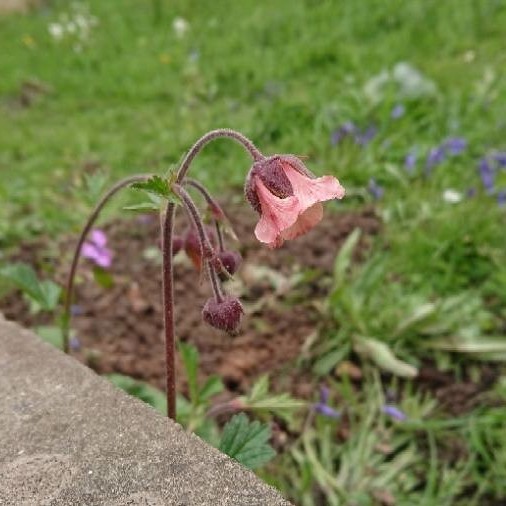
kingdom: Plantae
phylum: Tracheophyta
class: Magnoliopsida
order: Rosales
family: Rosaceae
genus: Geum
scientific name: Geum rivale
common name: Water avens
